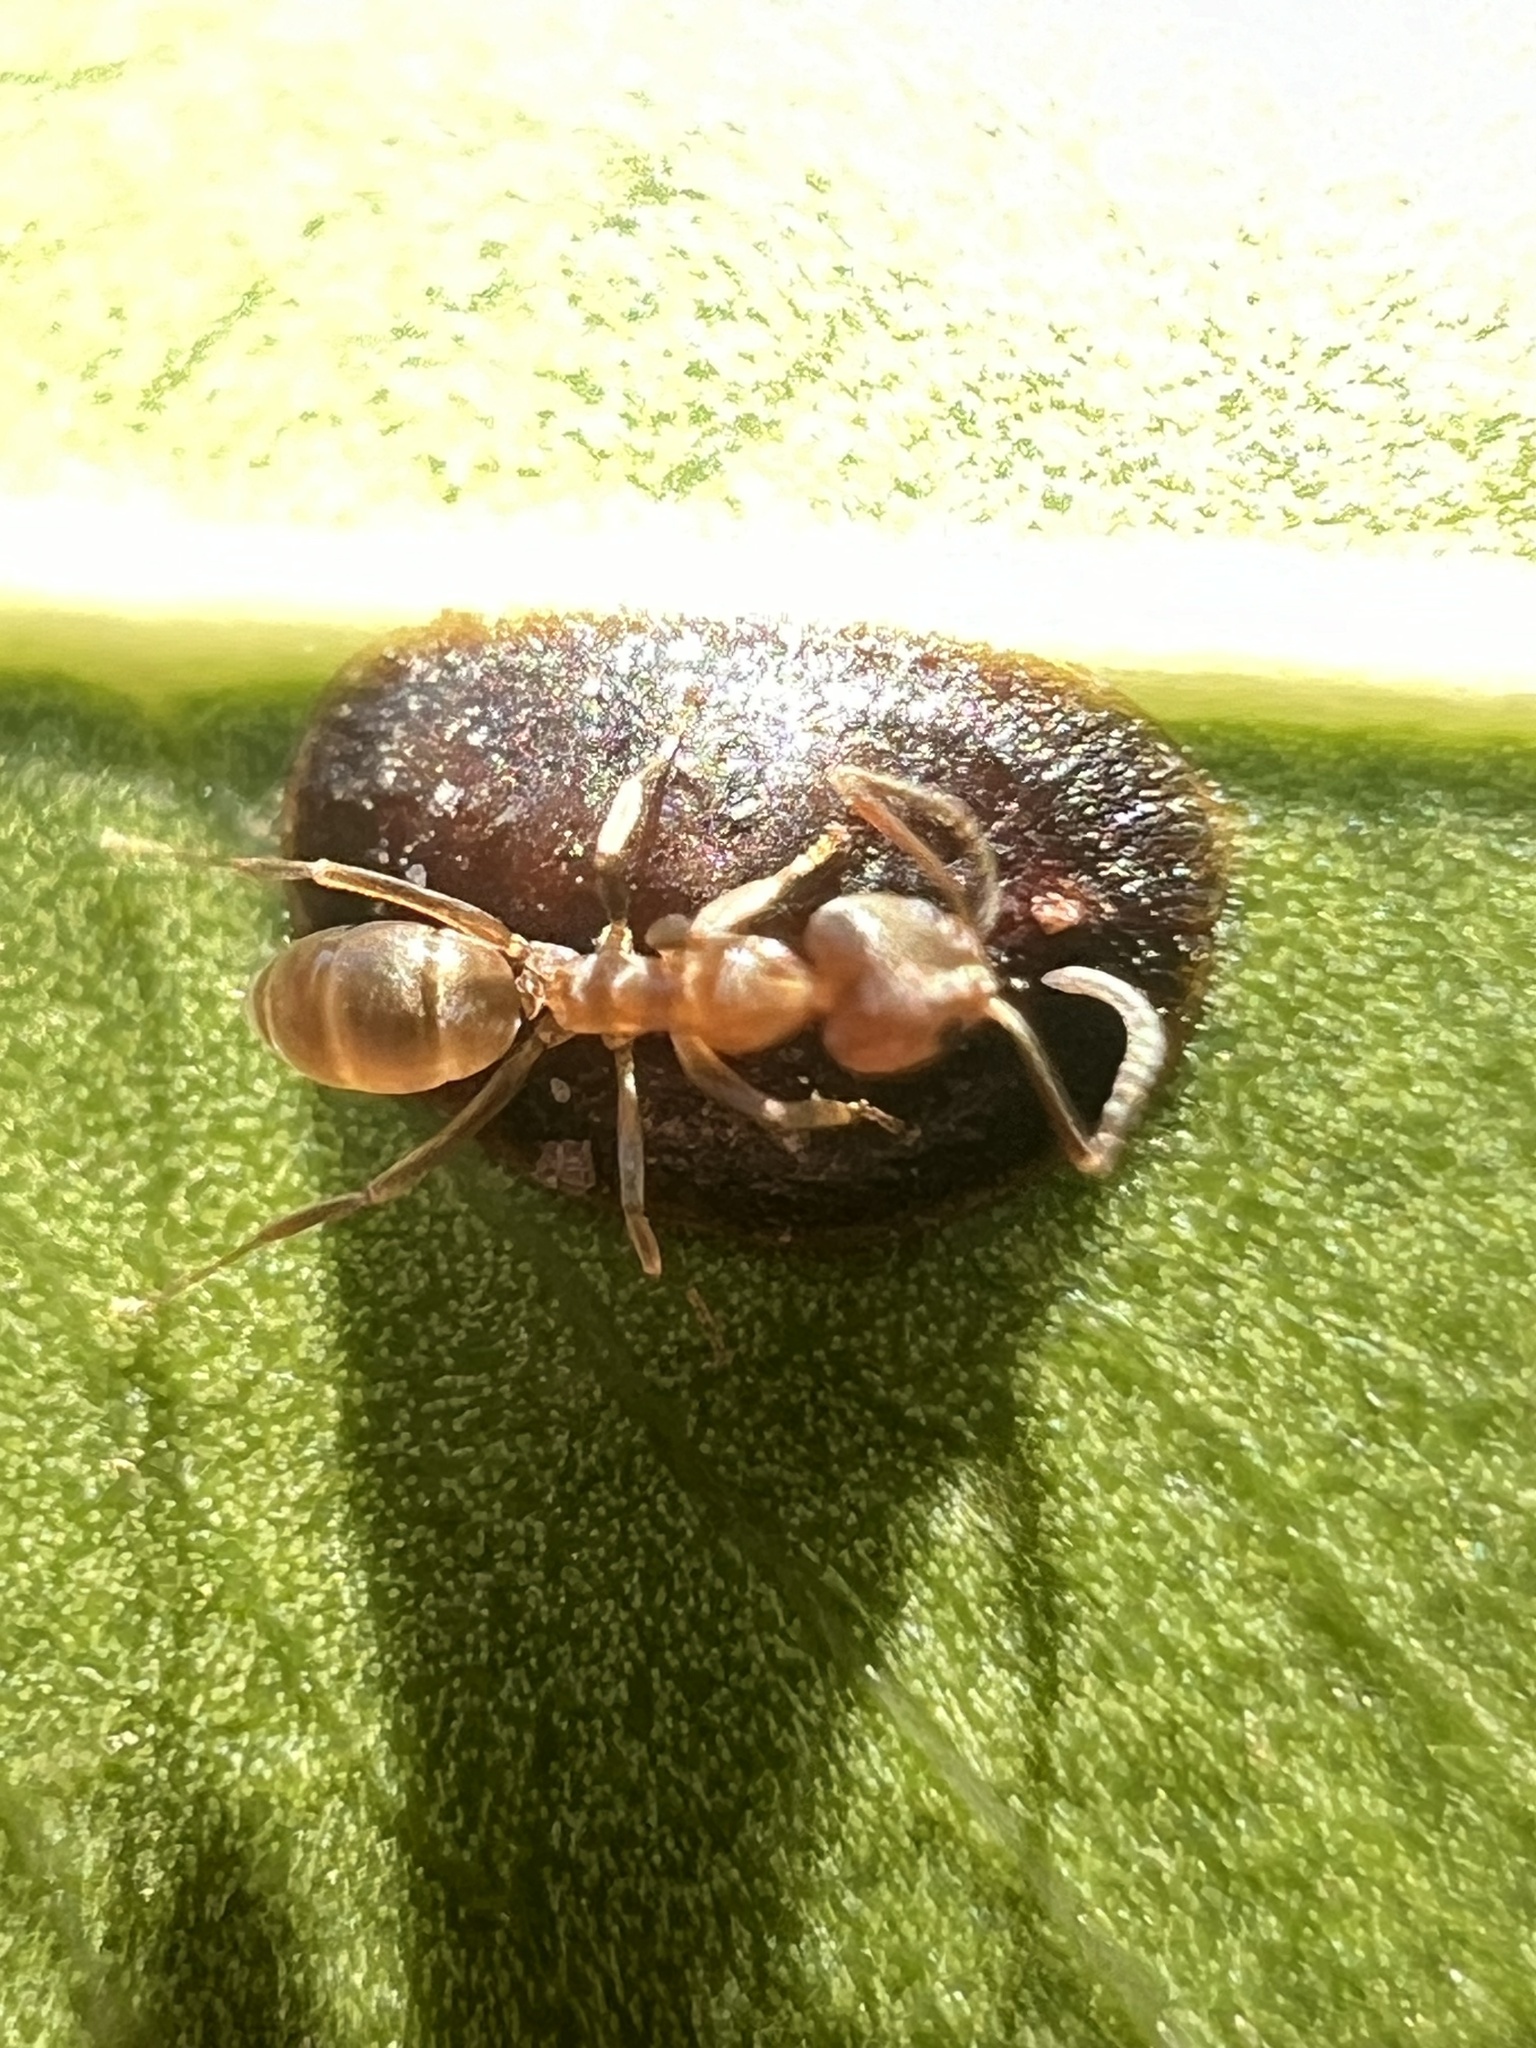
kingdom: Animalia
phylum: Arthropoda
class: Insecta
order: Hymenoptera
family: Formicidae
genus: Linepithema
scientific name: Linepithema humile
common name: Argentine ant
